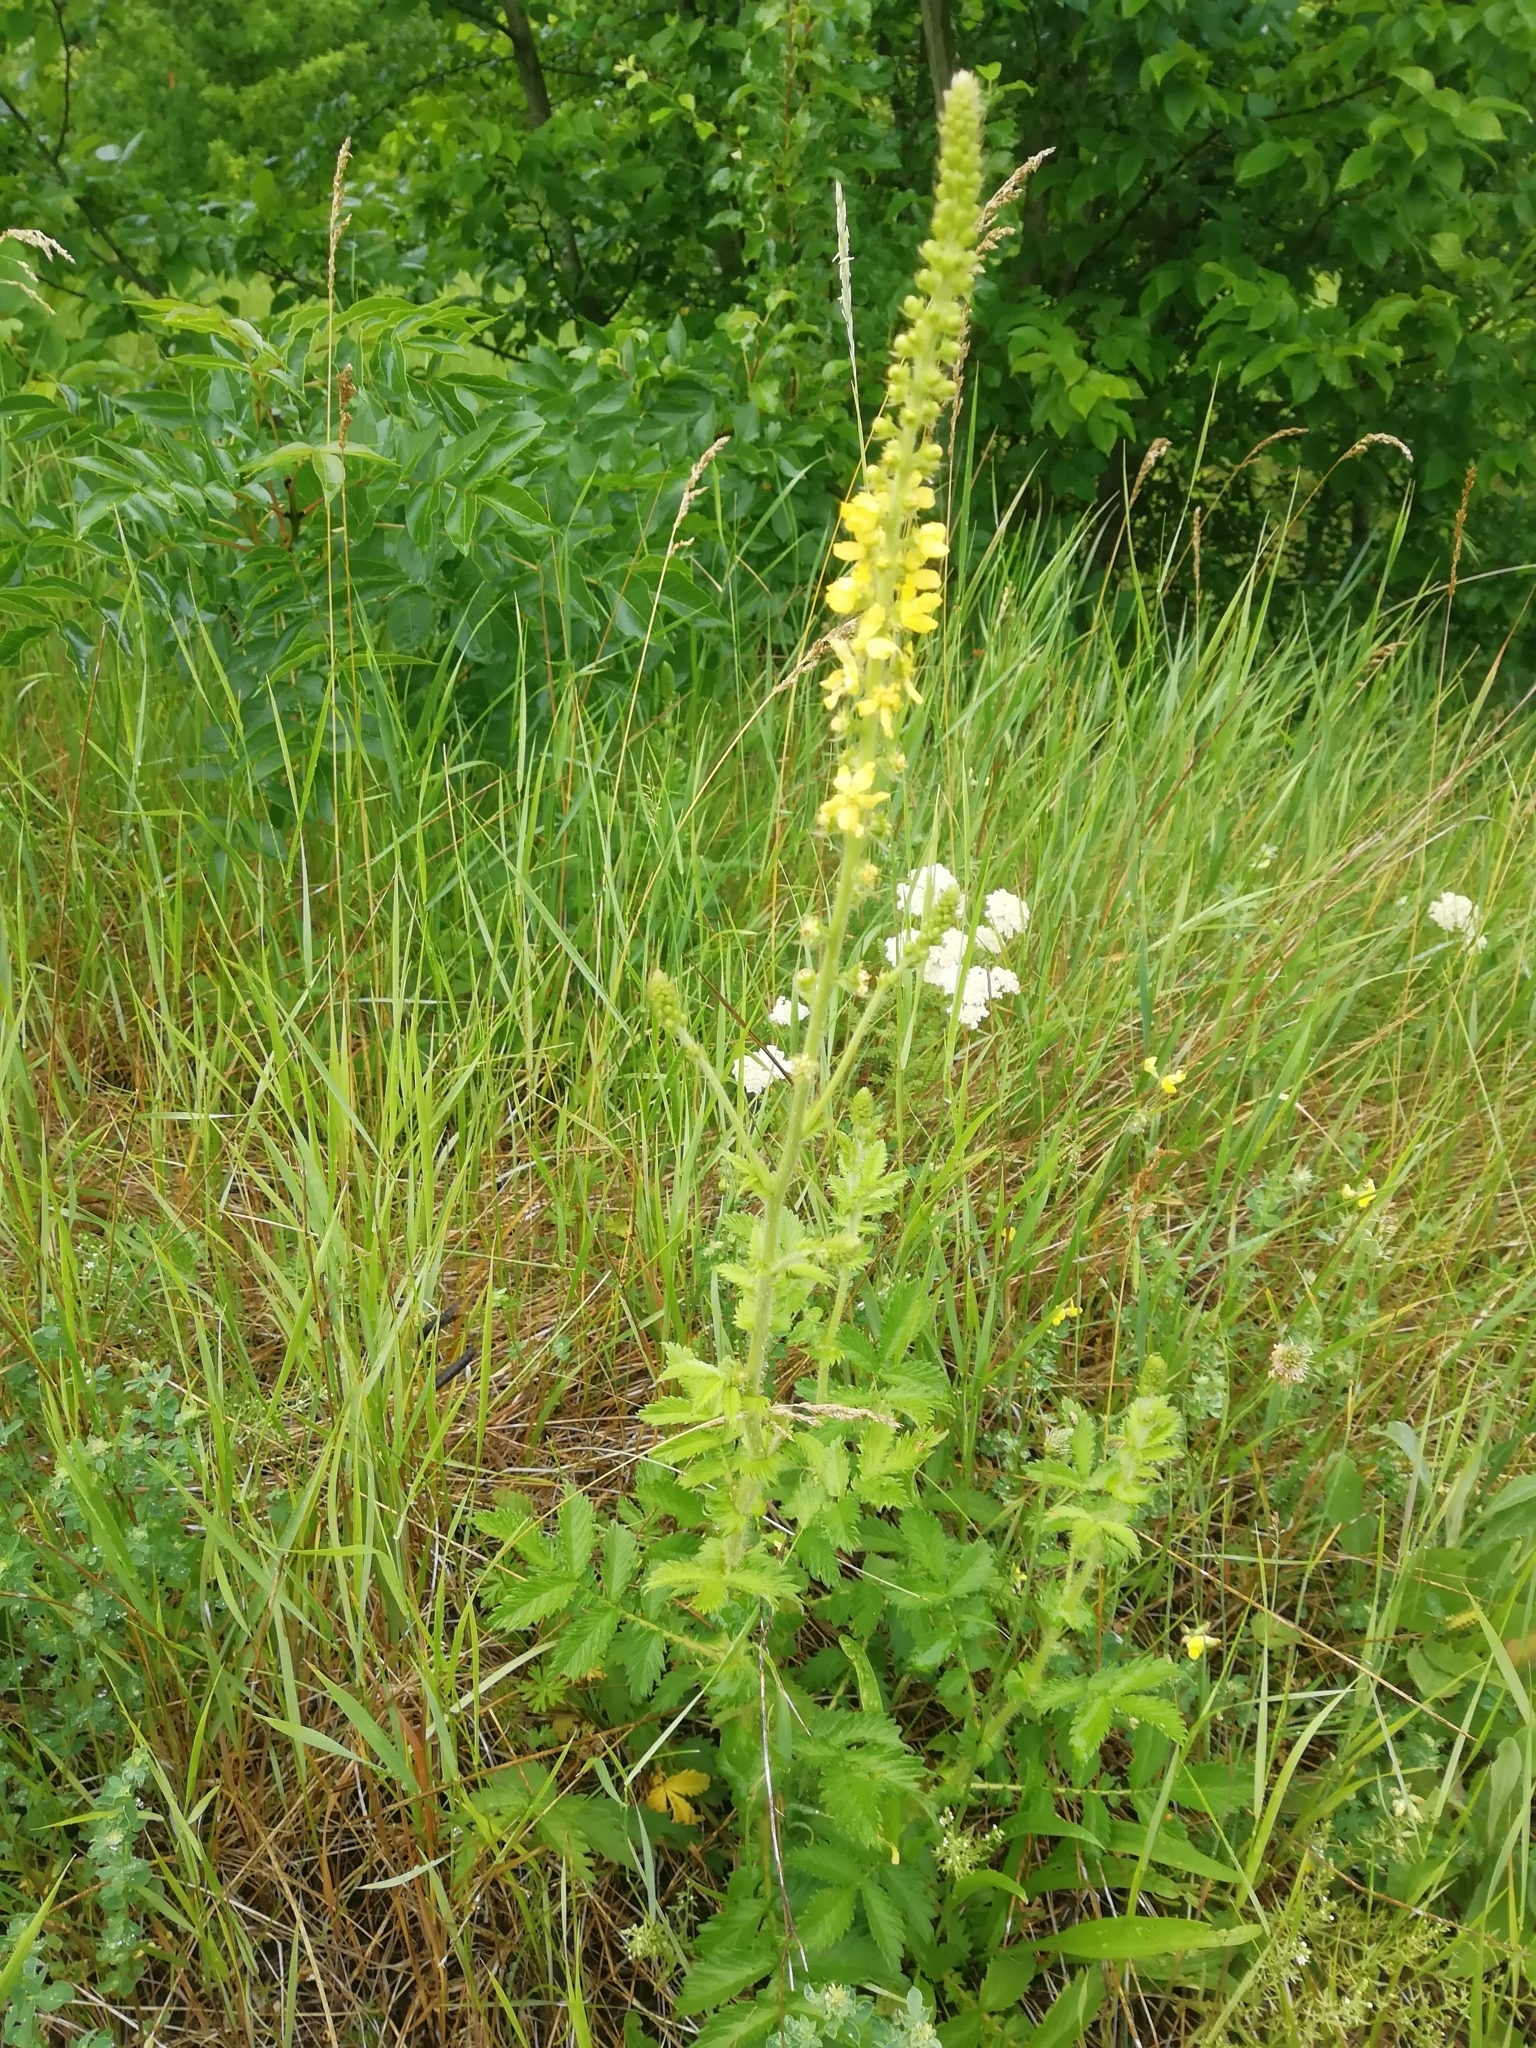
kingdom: Plantae
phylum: Tracheophyta
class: Magnoliopsida
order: Rosales
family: Rosaceae
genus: Agrimonia
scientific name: Agrimonia eupatoria
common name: Agrimony
